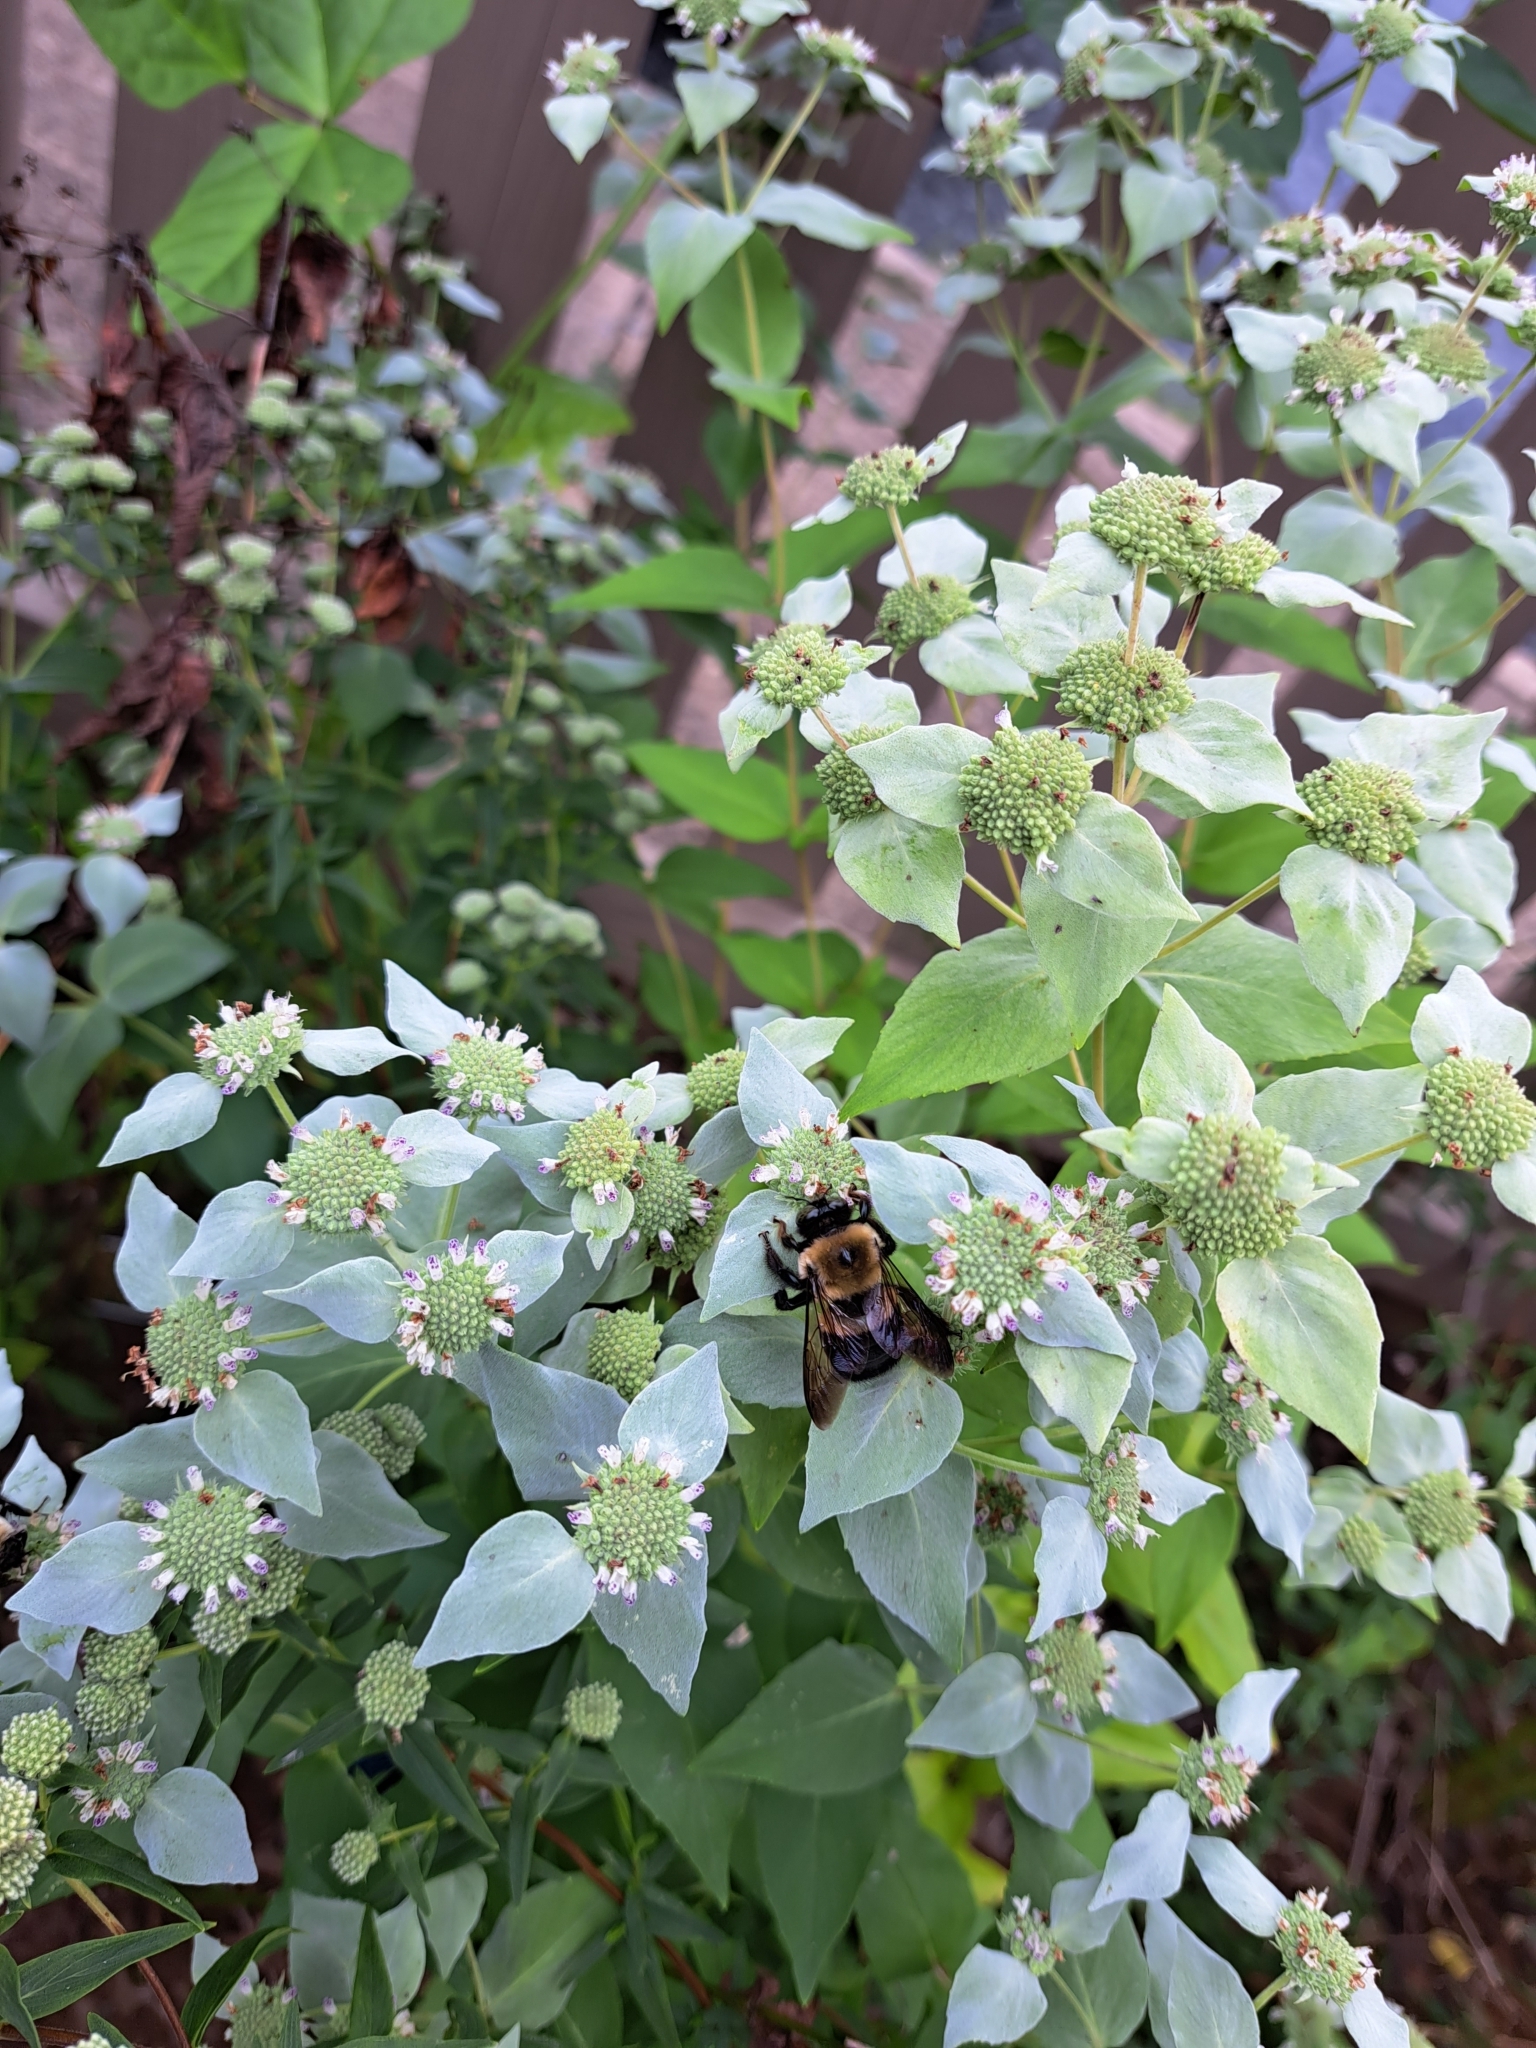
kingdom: Animalia
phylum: Arthropoda
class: Insecta
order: Hymenoptera
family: Apidae
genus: Xylocopa
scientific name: Xylocopa virginica
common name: Carpenter bee
